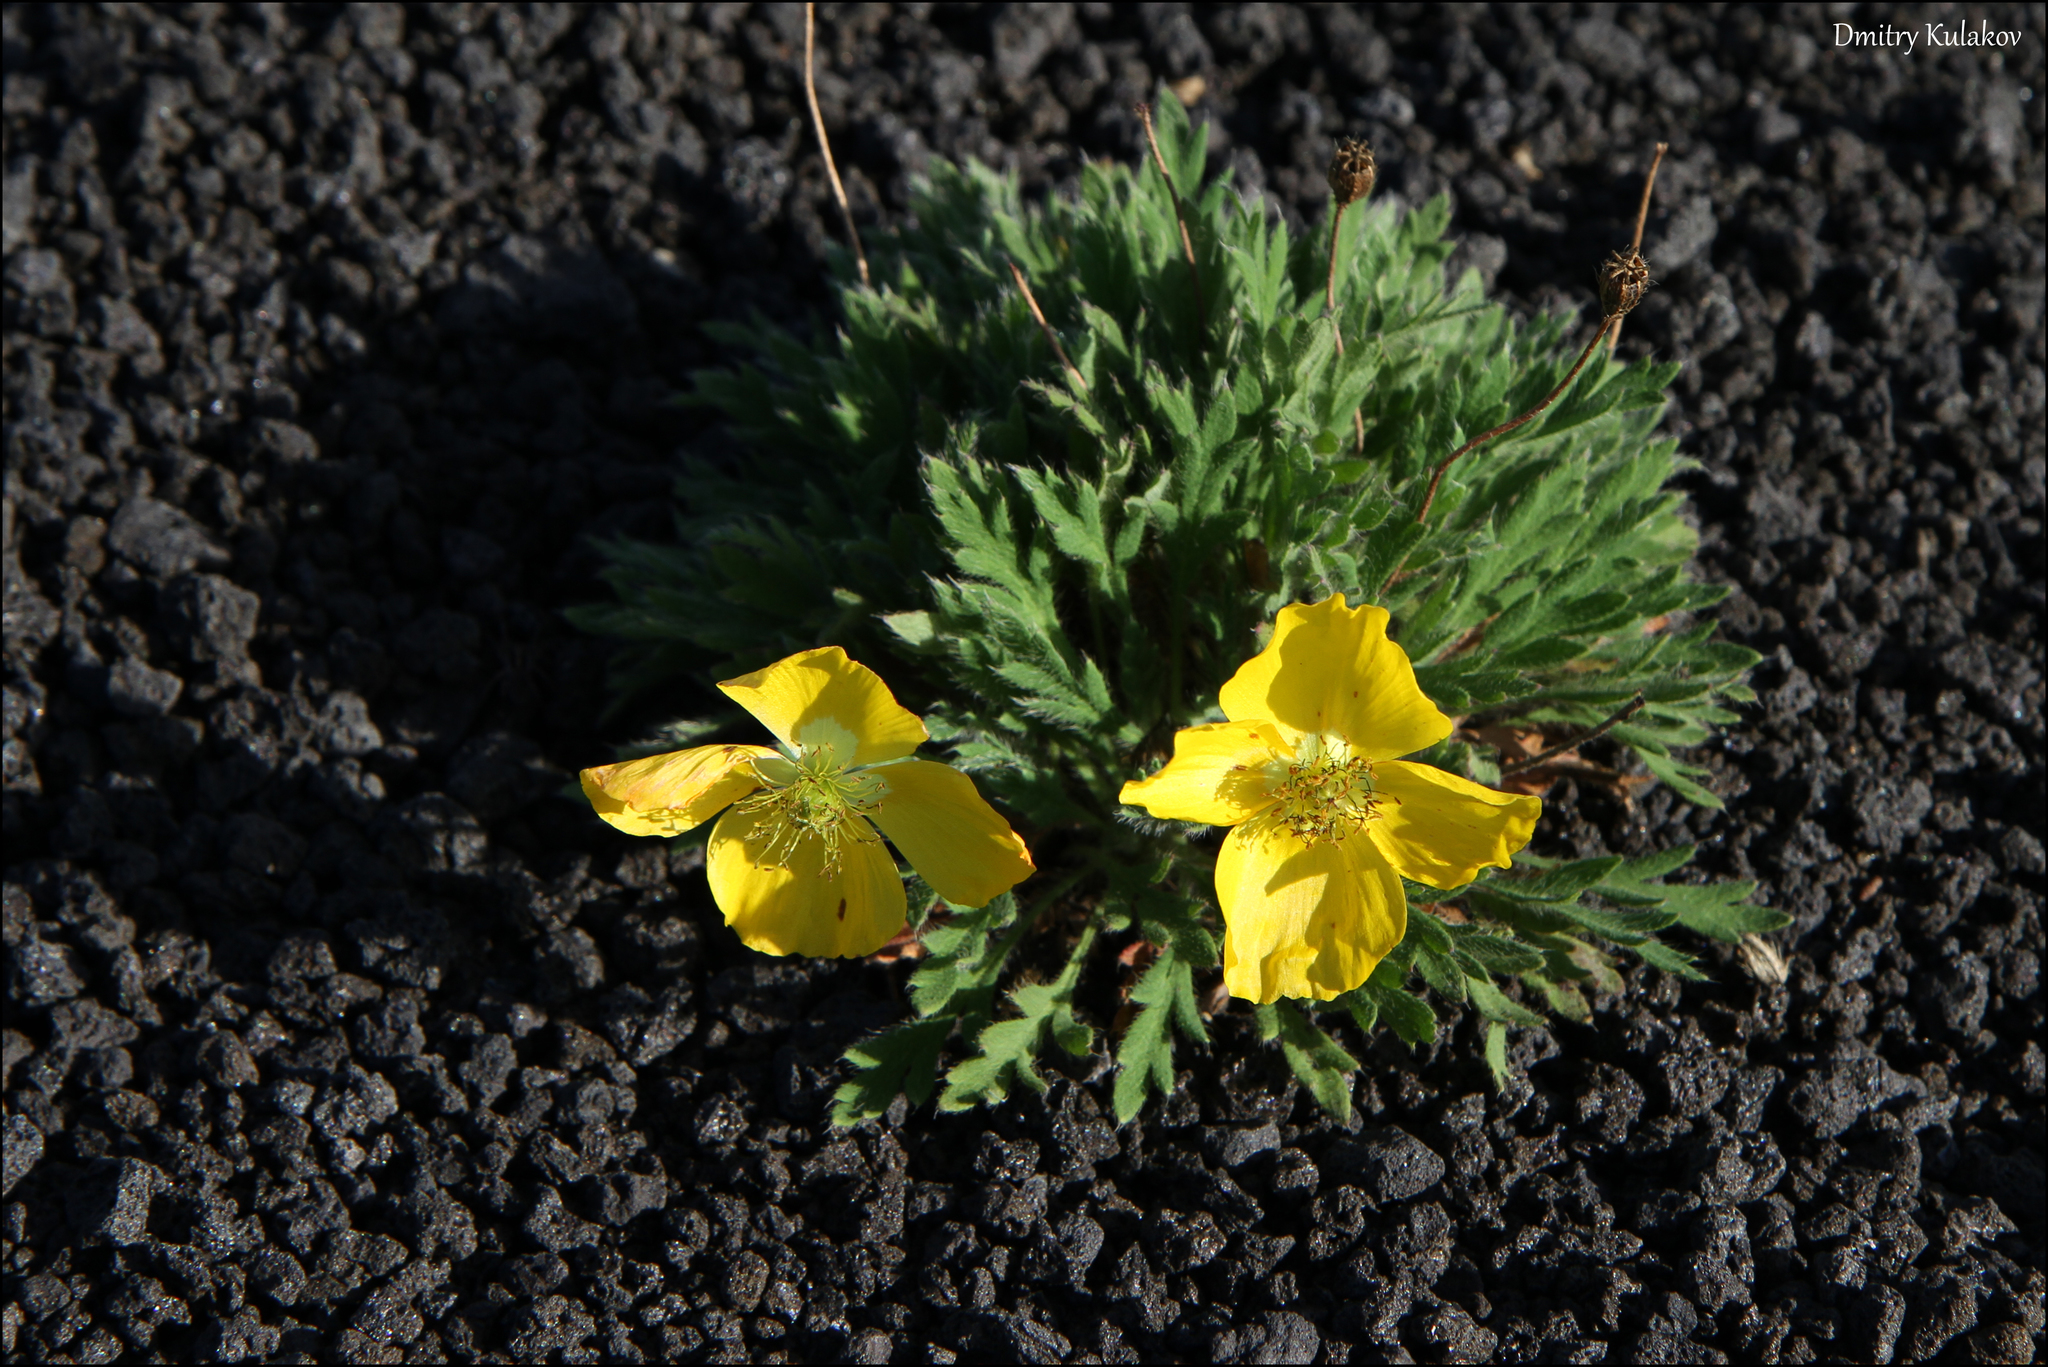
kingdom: Plantae
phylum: Tracheophyta
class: Magnoliopsida
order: Ranunculales
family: Papaveraceae
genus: Papaver
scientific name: Papaver microcarpum
